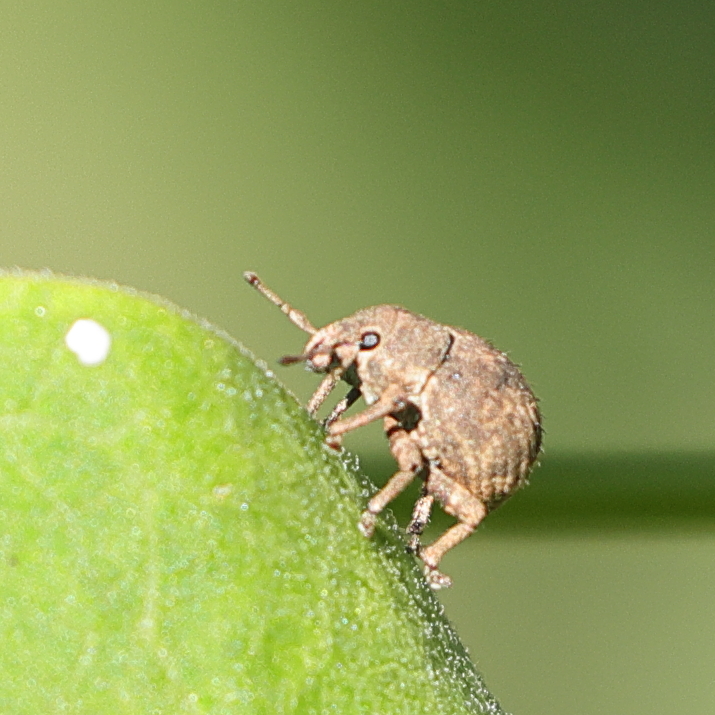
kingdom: Animalia
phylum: Arthropoda
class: Insecta
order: Coleoptera
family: Curculionidae
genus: Pseudocneorhinus
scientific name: Pseudocneorhinus bifasciatus
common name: Two-banded japanese weevil
